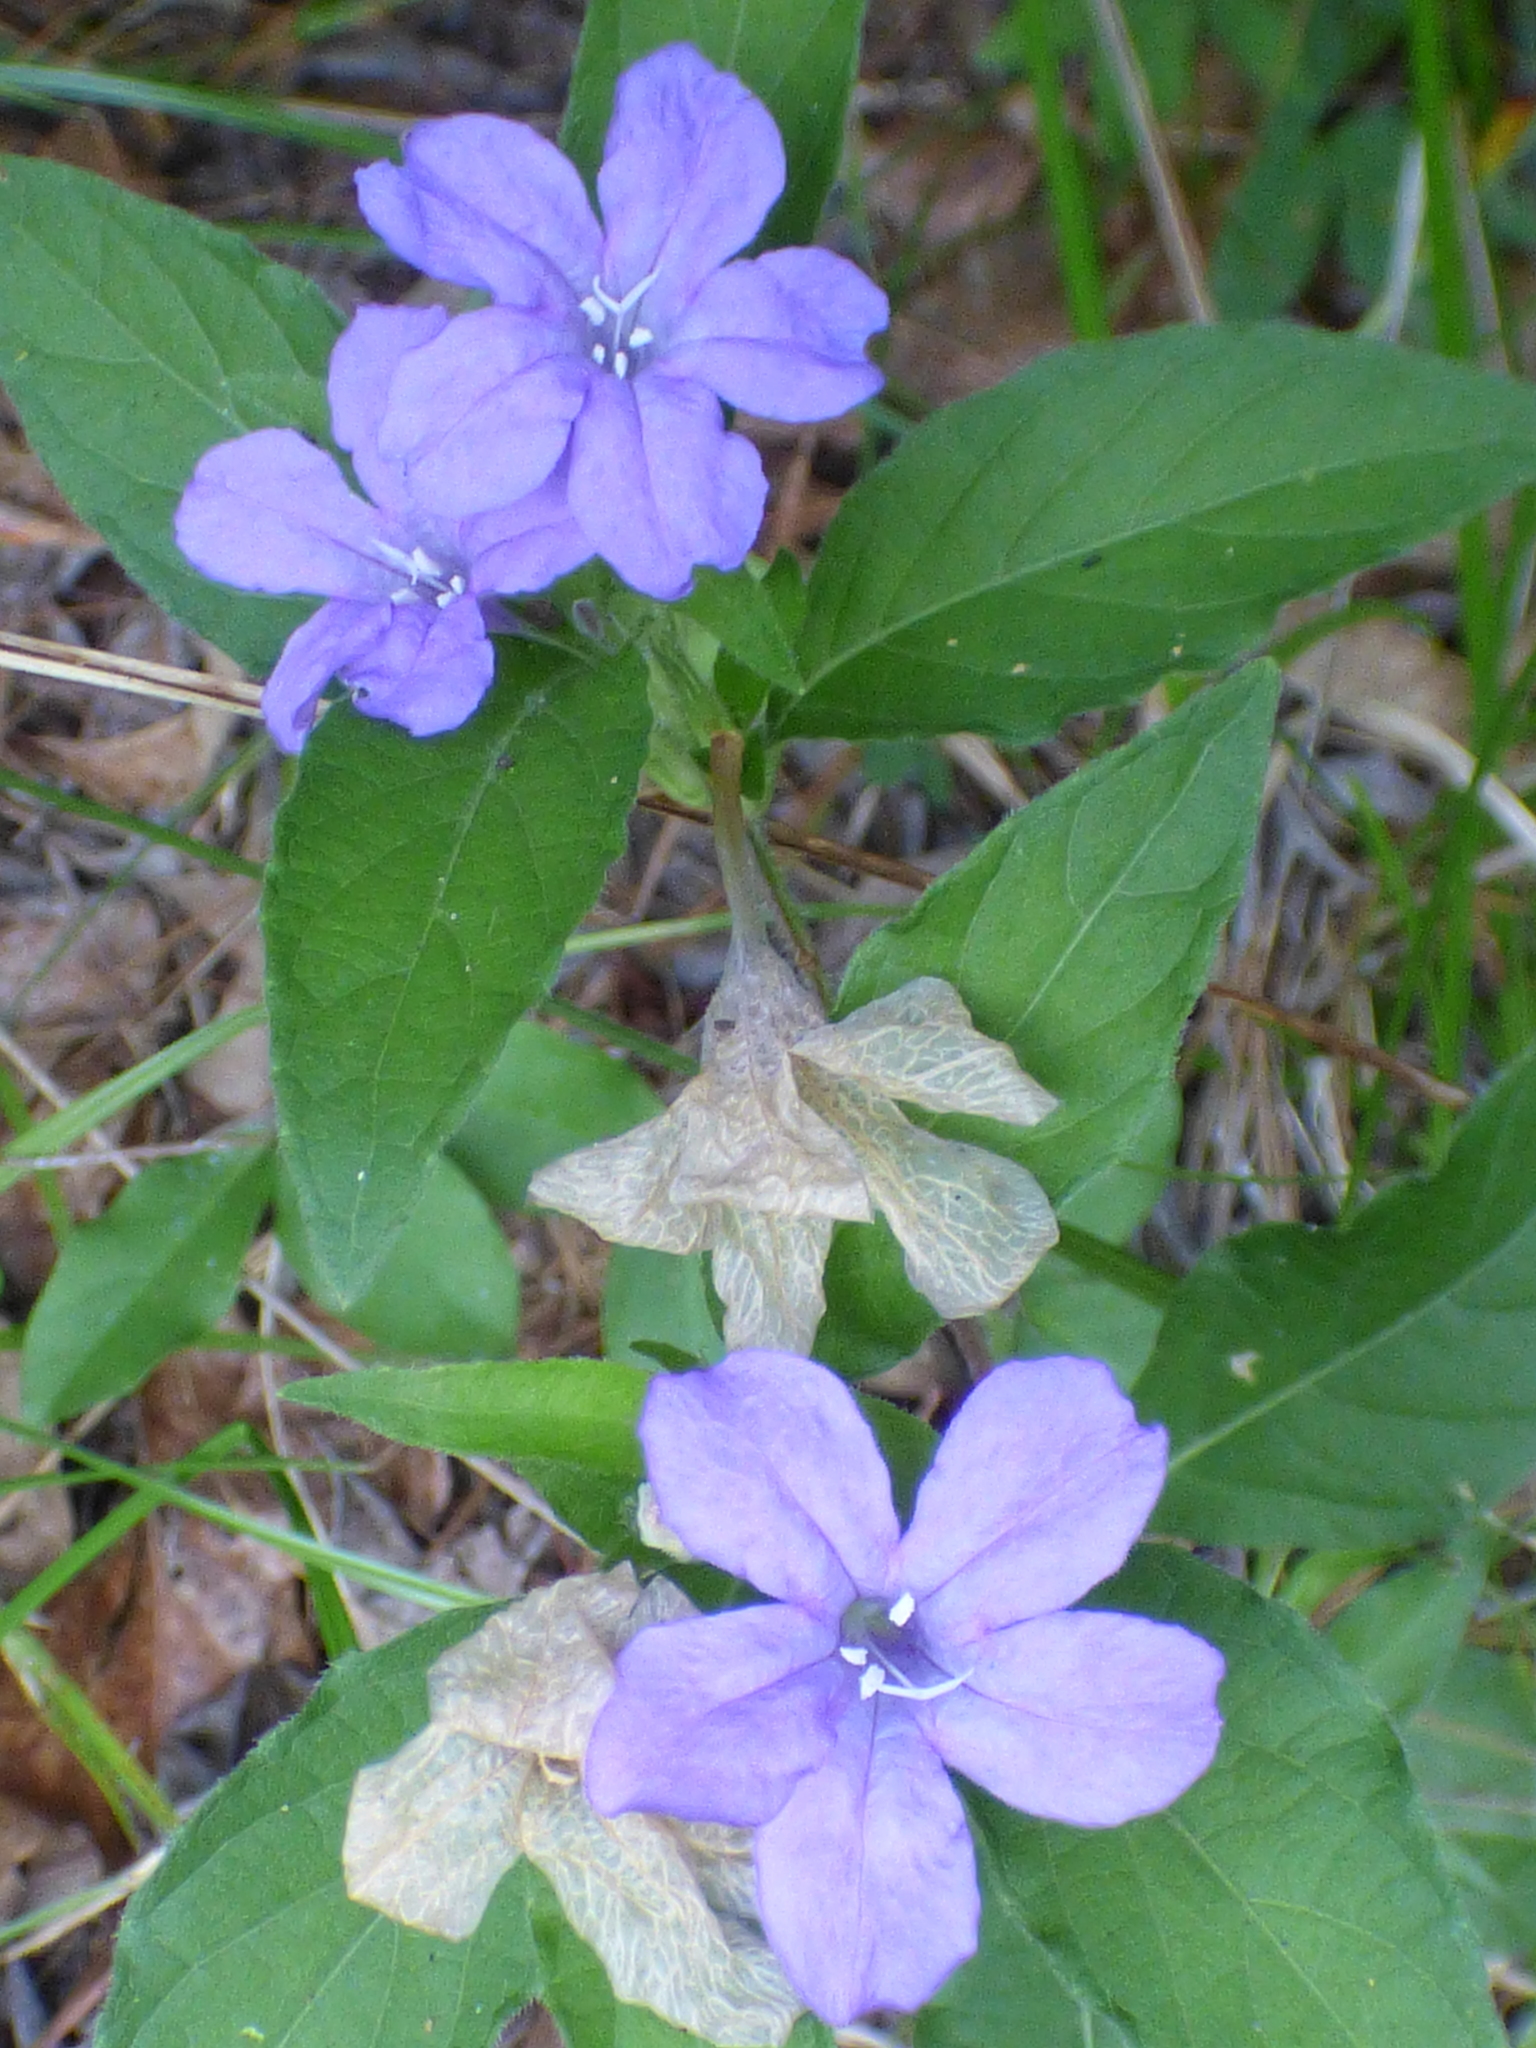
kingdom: Plantae
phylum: Tracheophyta
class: Magnoliopsida
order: Lamiales
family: Acanthaceae
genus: Ruellia
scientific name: Ruellia caroliniensis
